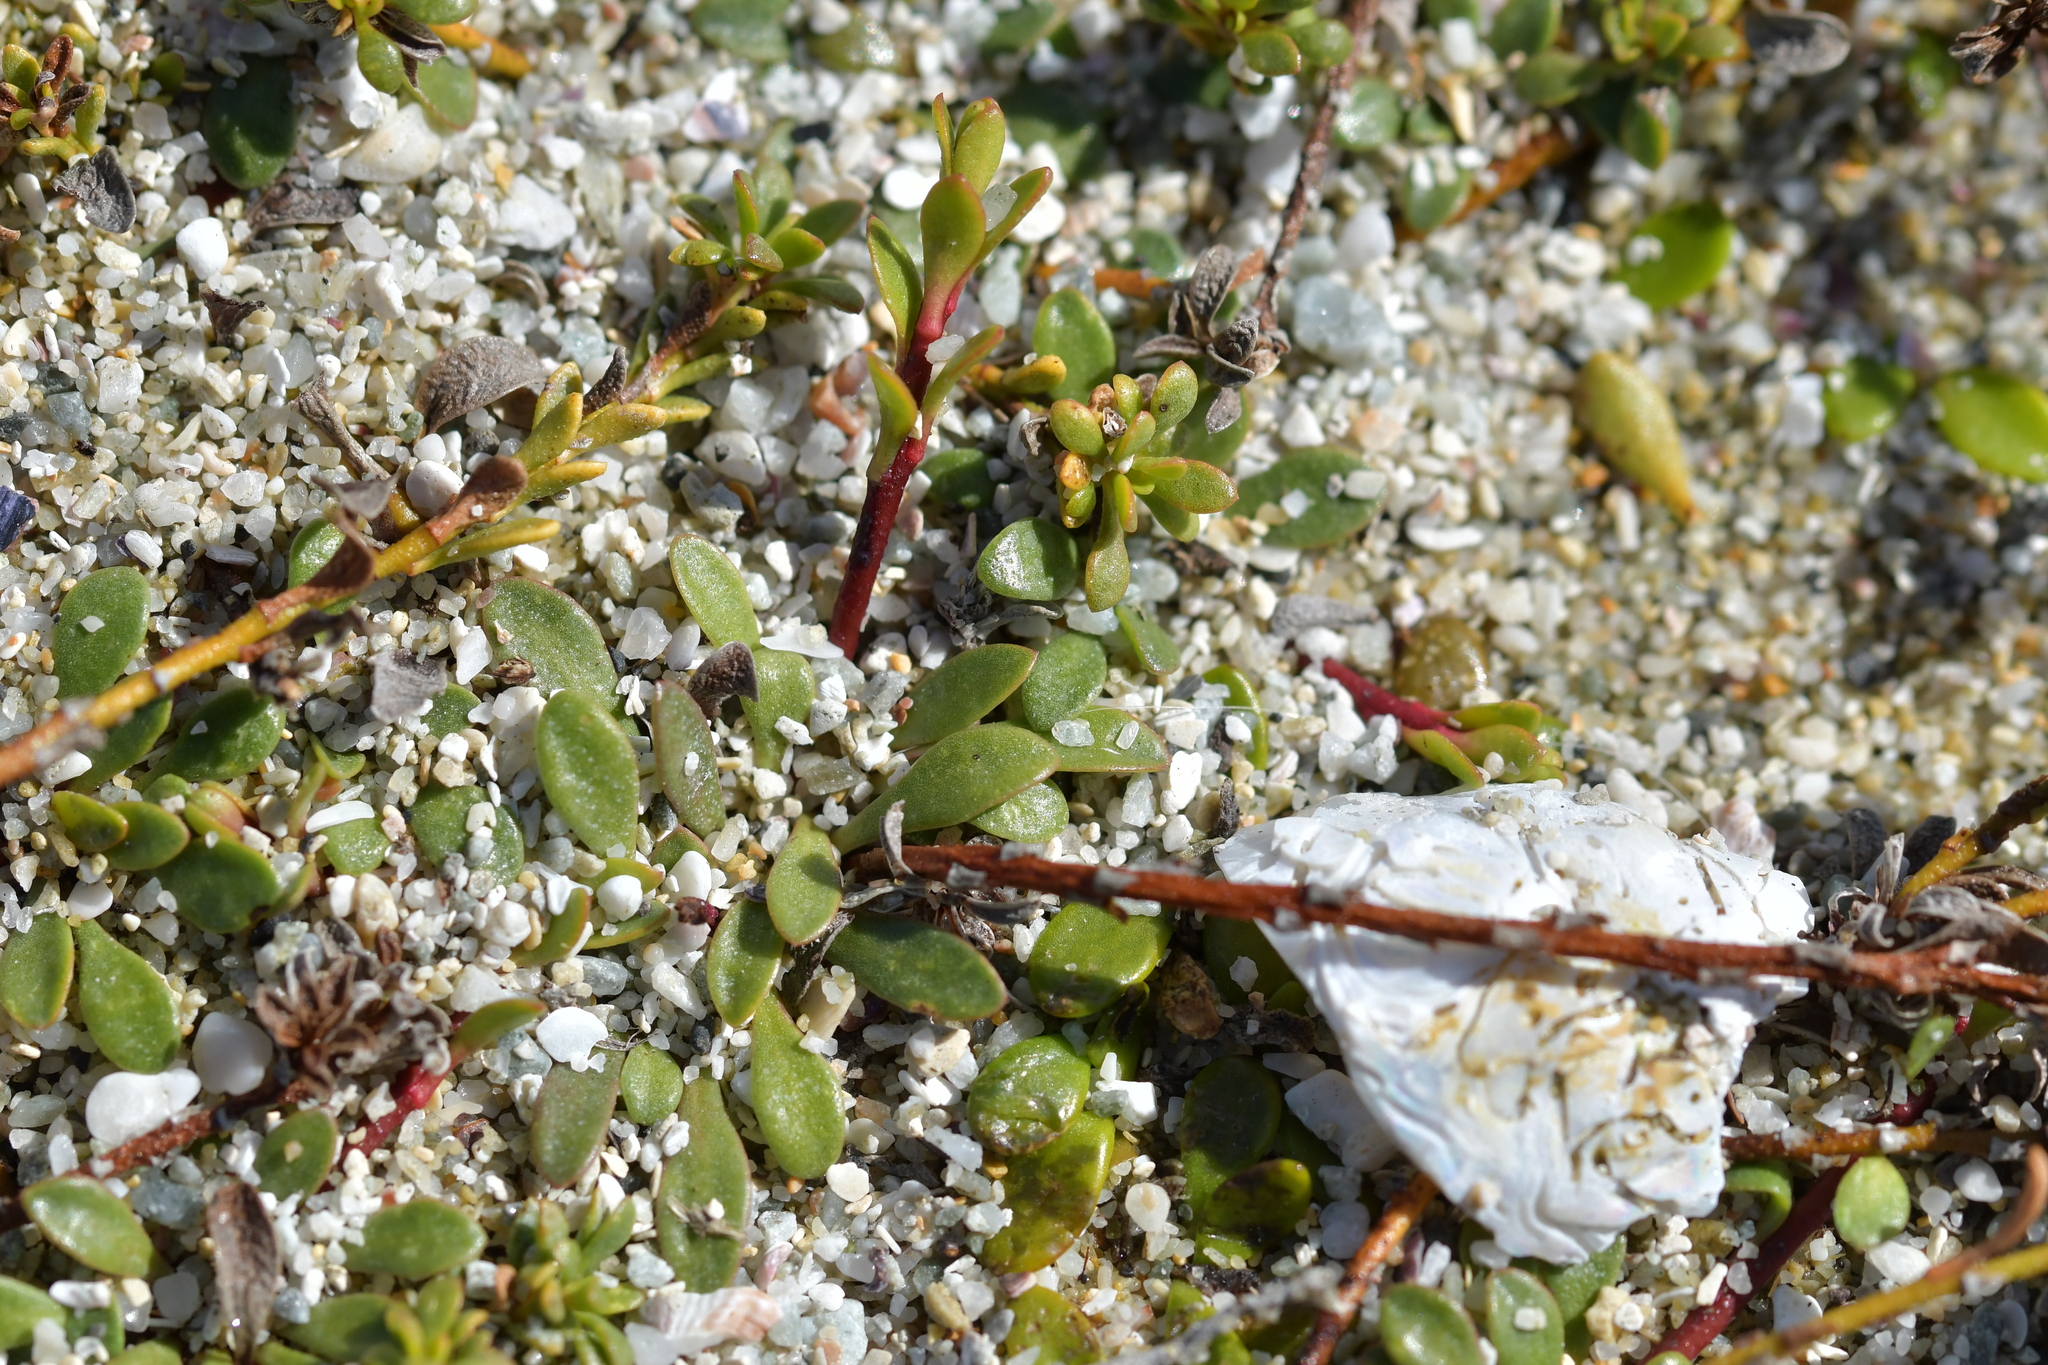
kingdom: Plantae
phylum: Tracheophyta
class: Magnoliopsida
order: Ericales
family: Primulaceae
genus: Samolus
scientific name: Samolus repens
